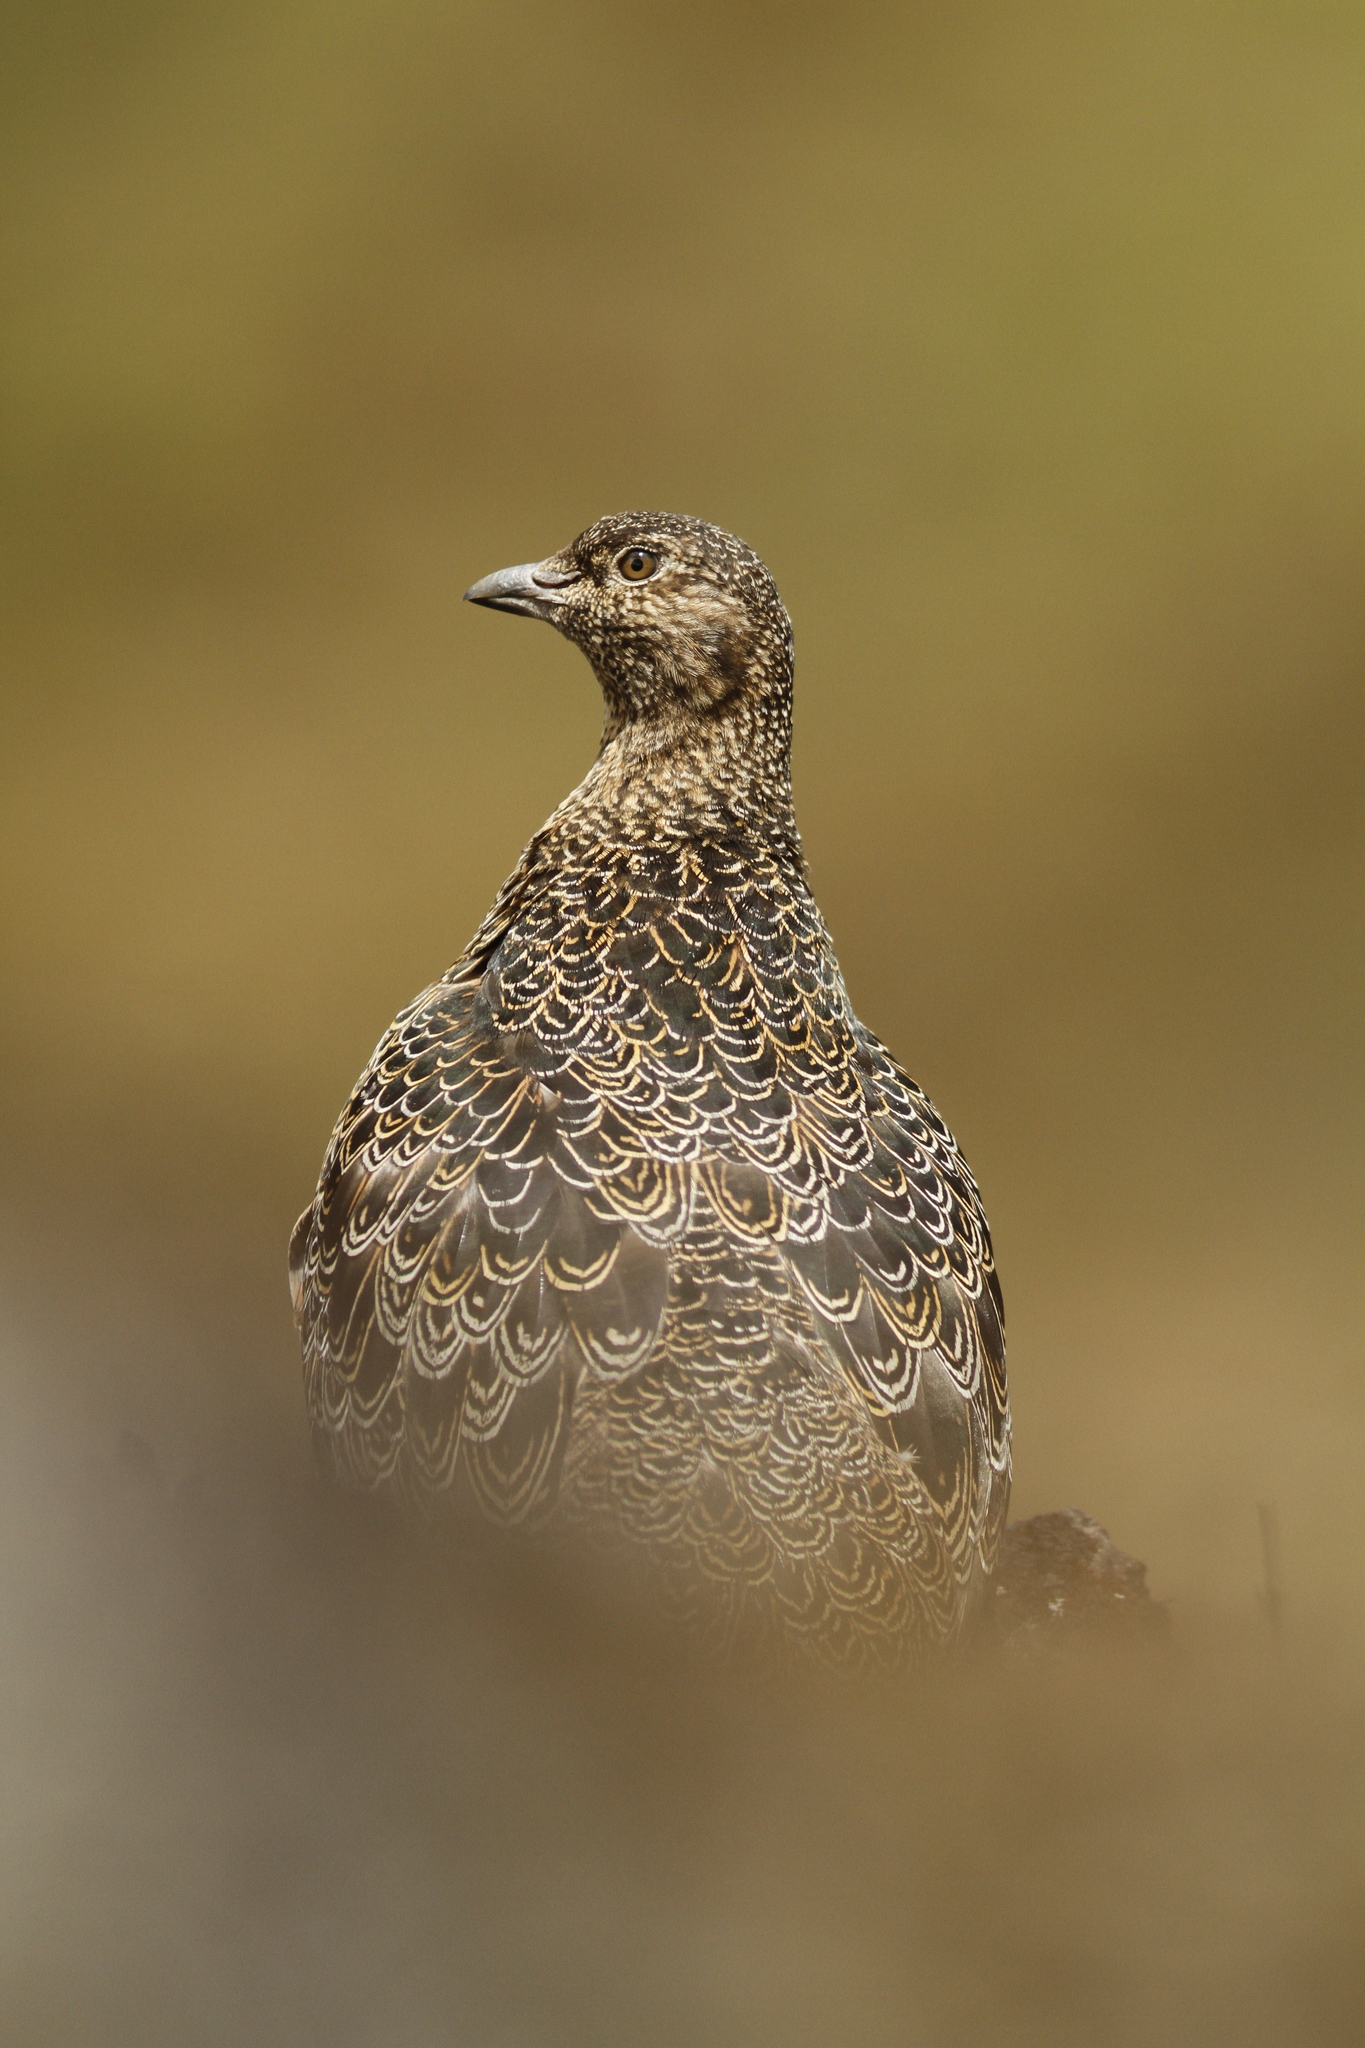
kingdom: Animalia
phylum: Chordata
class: Aves
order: Charadriiformes
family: Thinocoridae
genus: Attagis
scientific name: Attagis gayi
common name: Rufous-bellied seedsnipe
